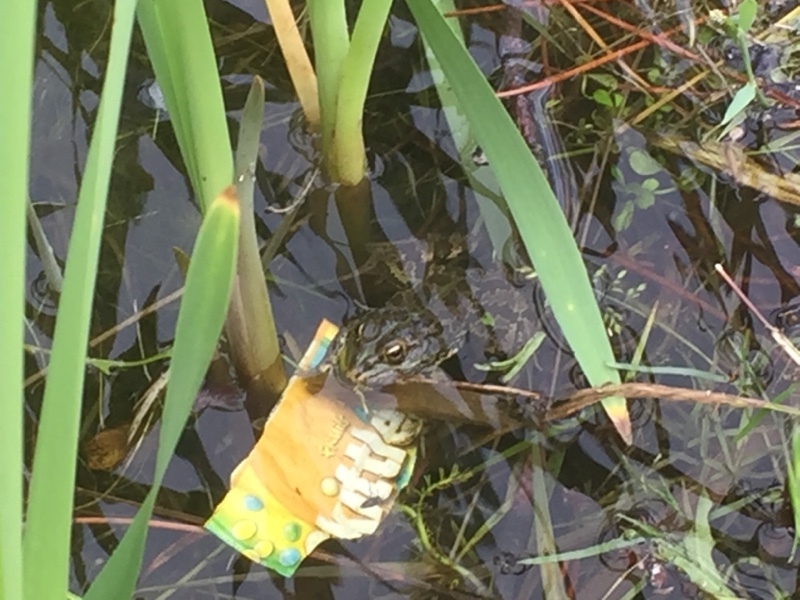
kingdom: Animalia
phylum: Chordata
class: Amphibia
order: Anura
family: Ranidae
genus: Pelophylax
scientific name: Pelophylax perezi
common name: Perez's frog
